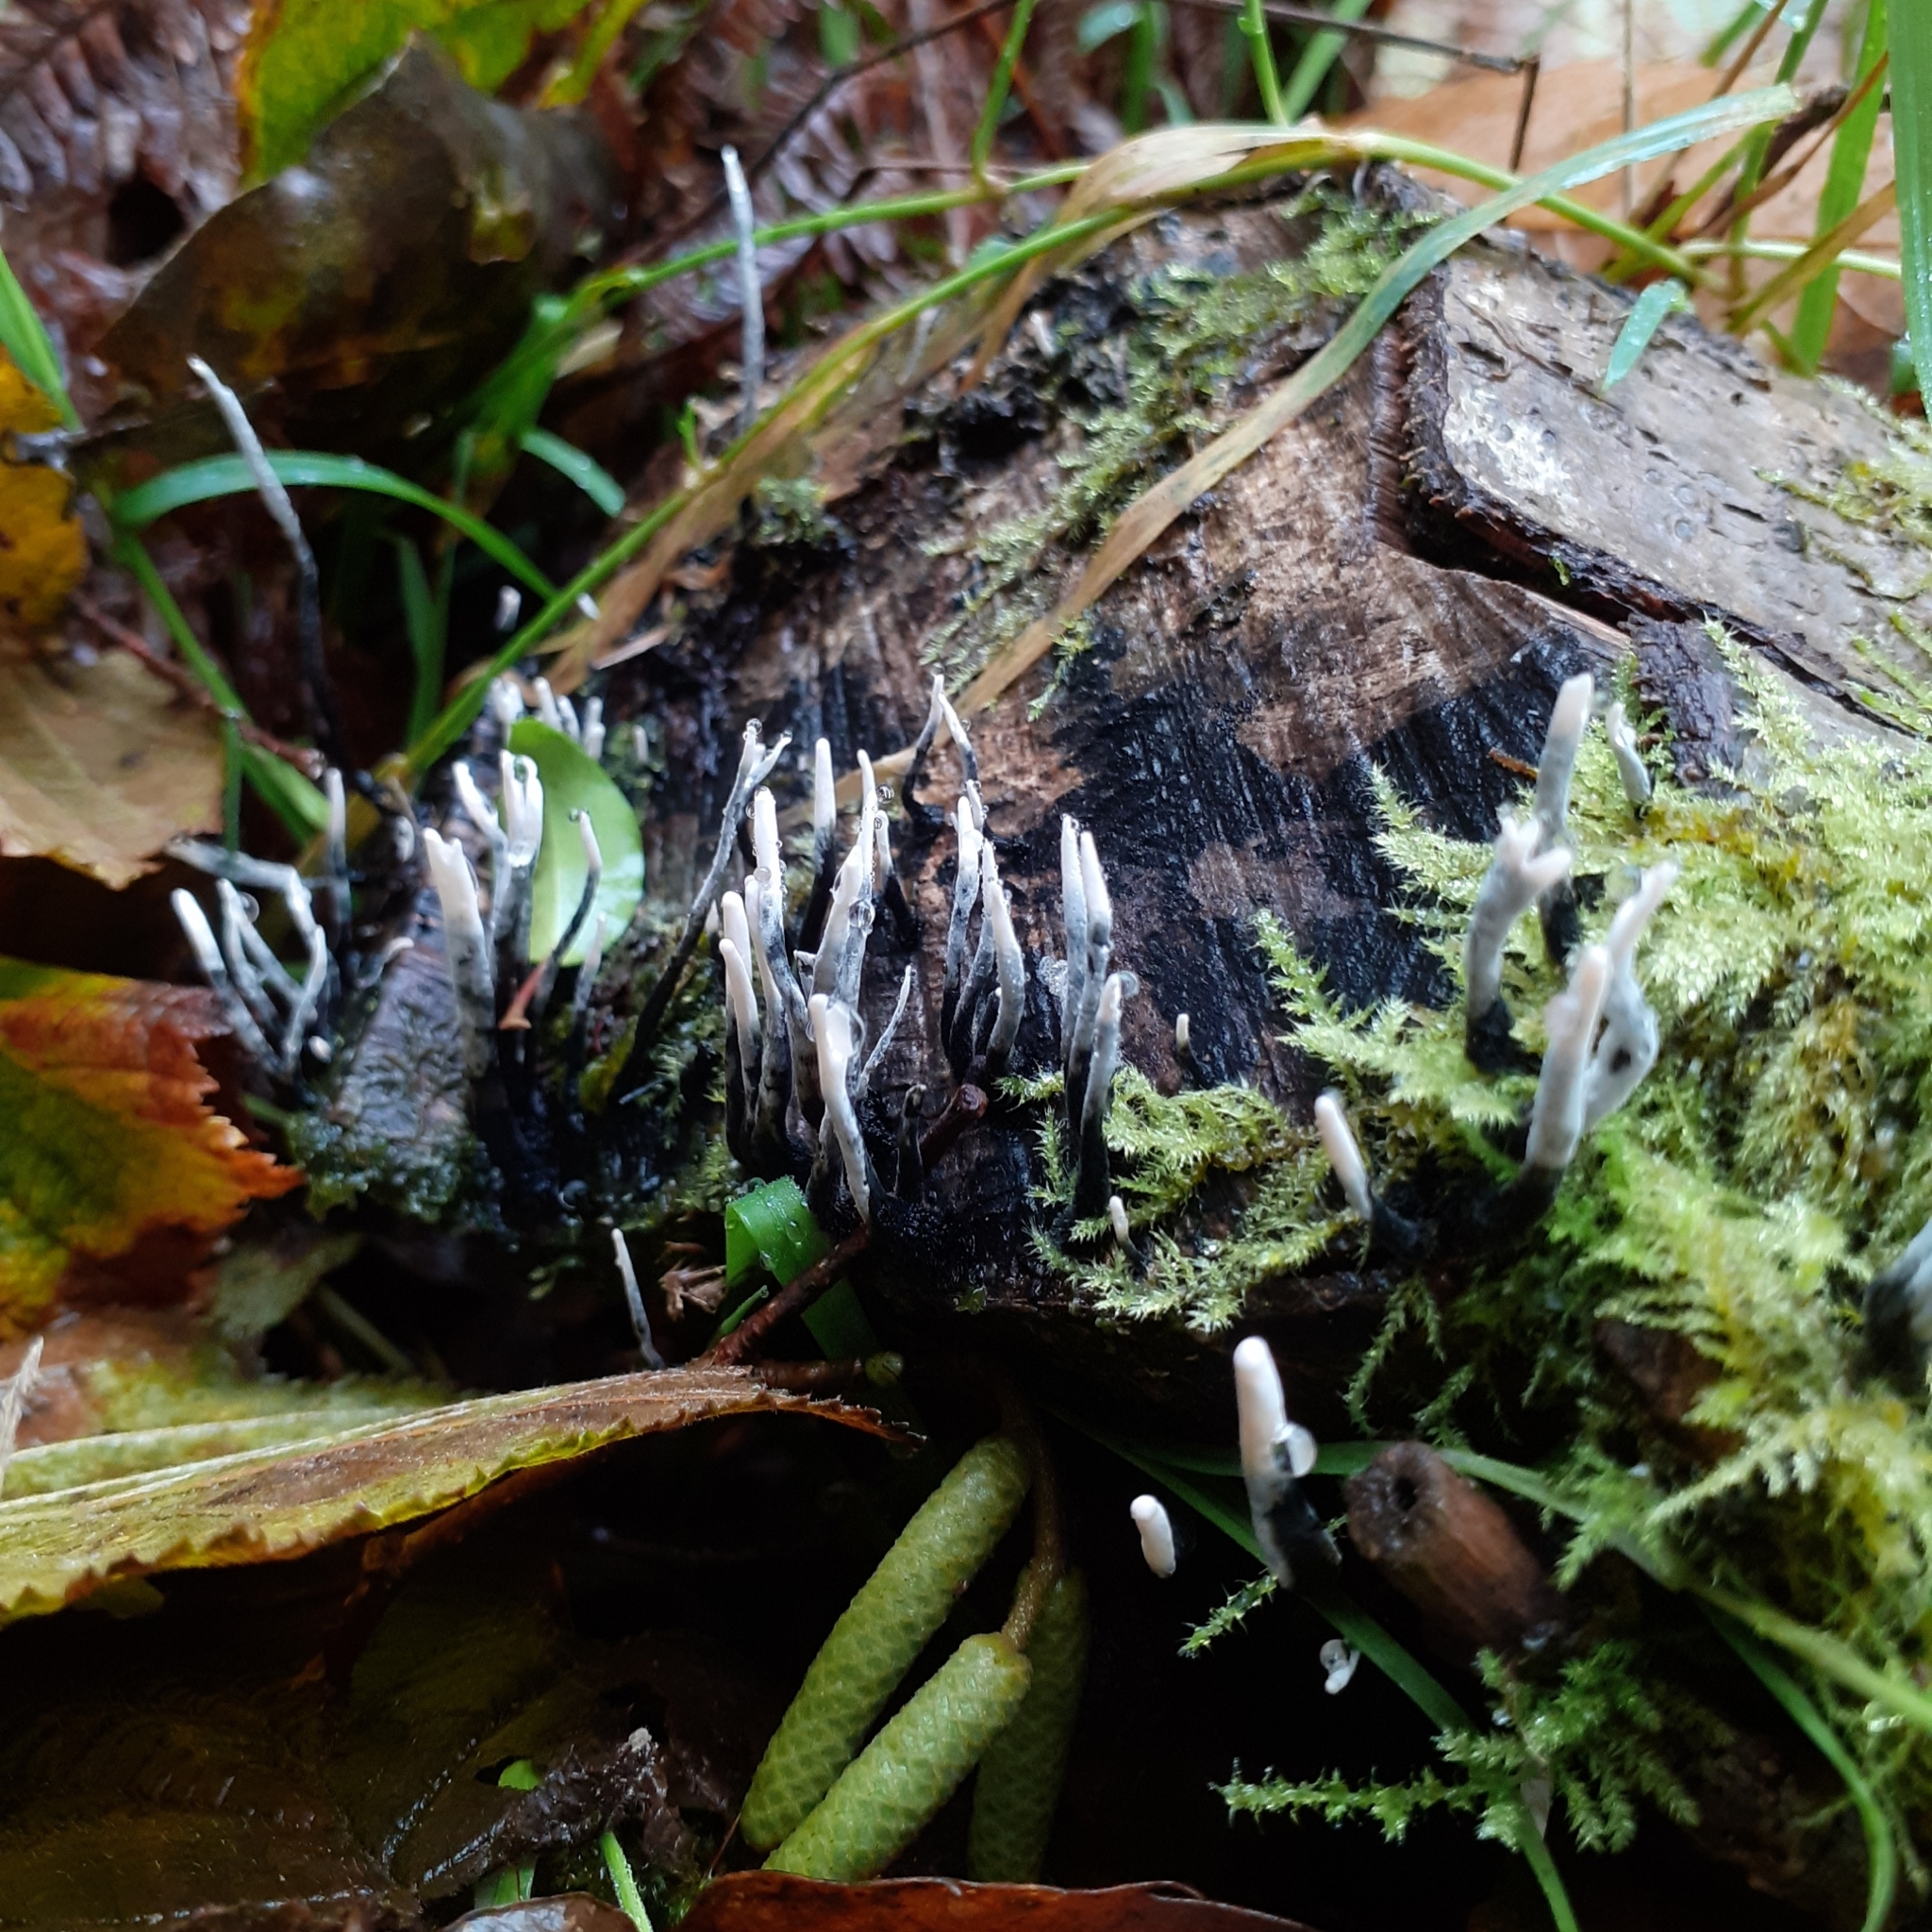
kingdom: Fungi
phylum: Ascomycota
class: Sordariomycetes
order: Xylariales
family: Xylariaceae
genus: Xylaria
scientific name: Xylaria hypoxylon
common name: Candle-snuff fungus
